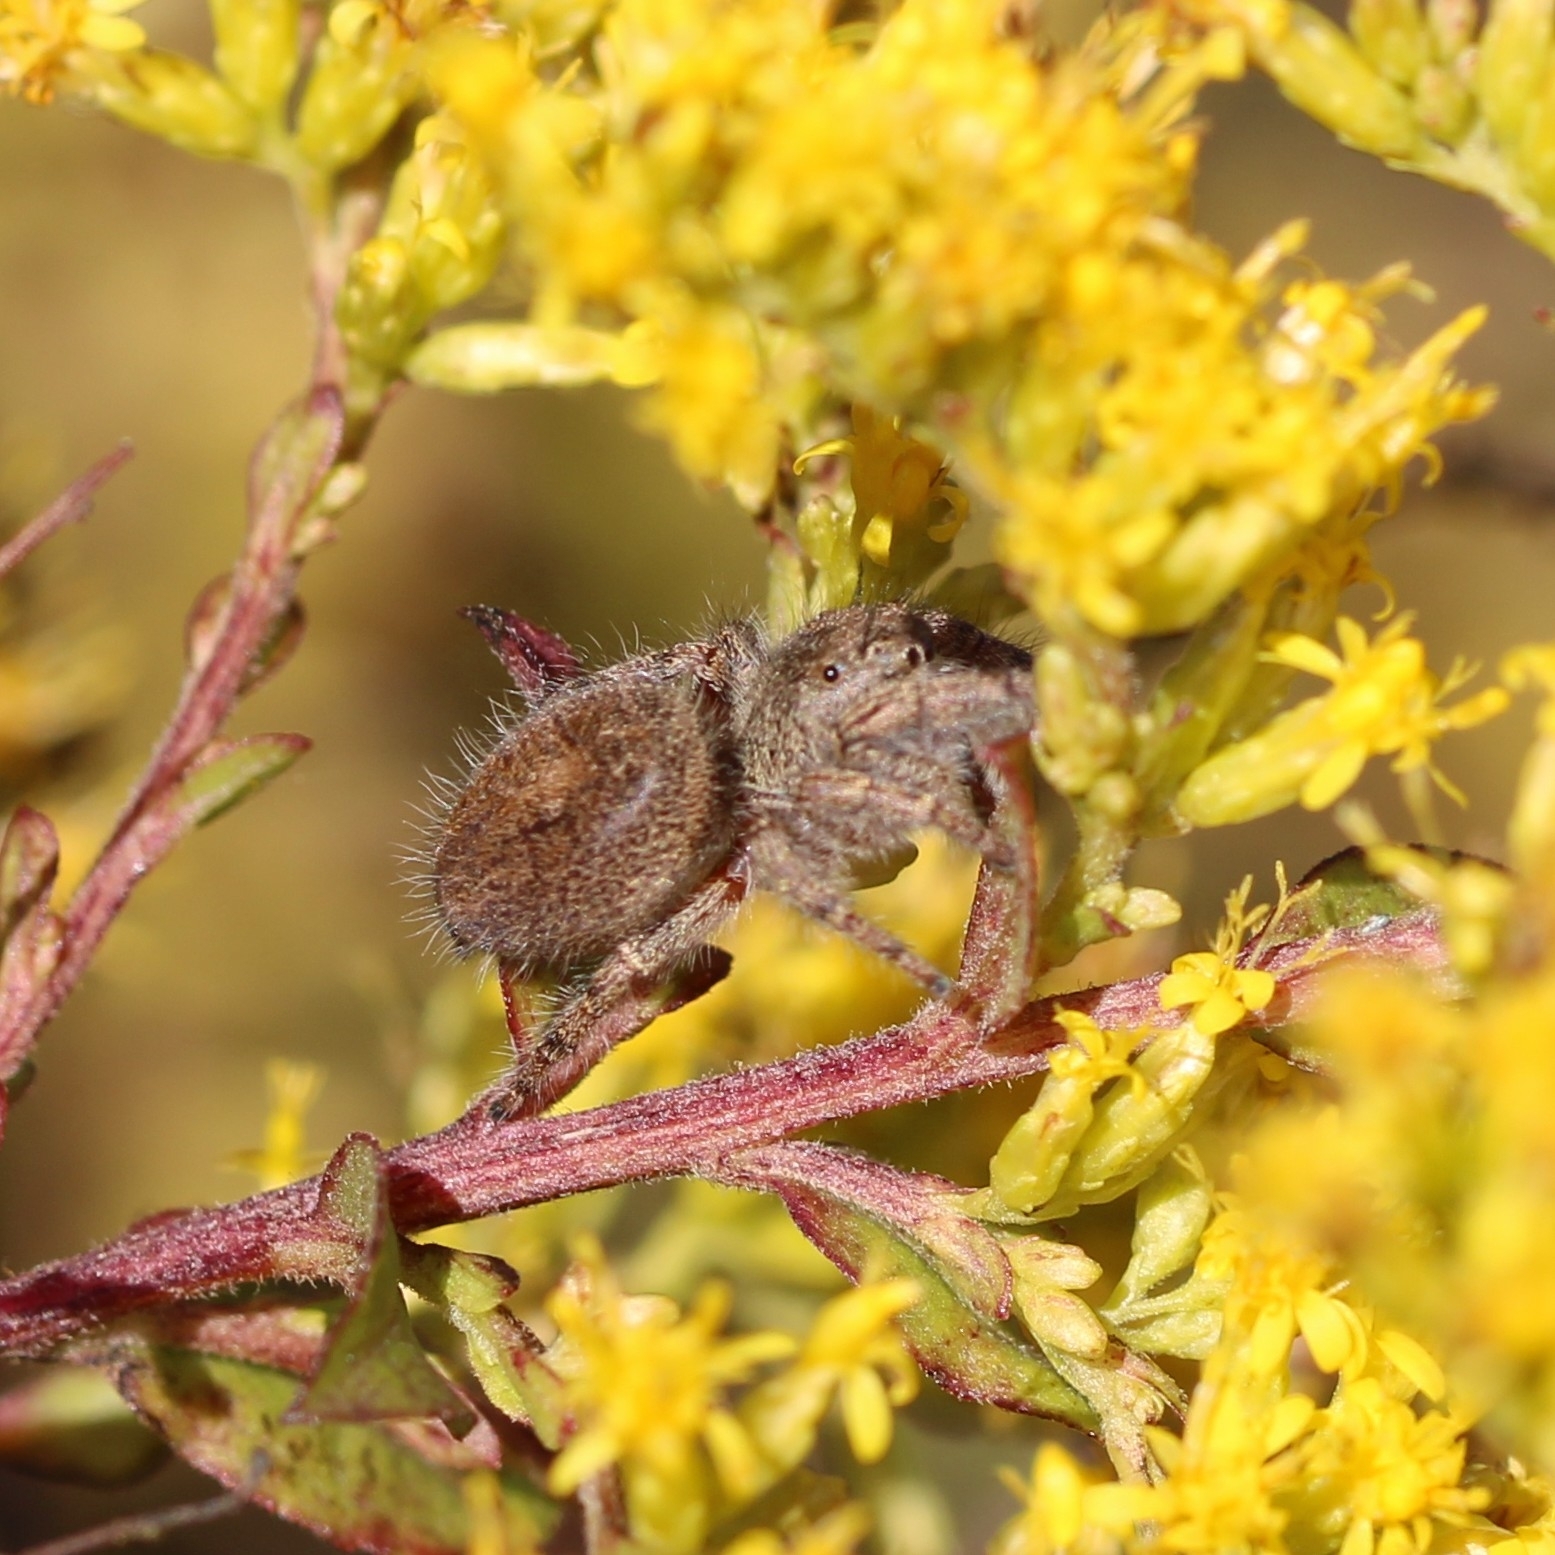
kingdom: Animalia
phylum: Arthropoda
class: Arachnida
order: Araneae
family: Salticidae
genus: Phidippus
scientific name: Phidippus princeps
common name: Grayish jumping spider
